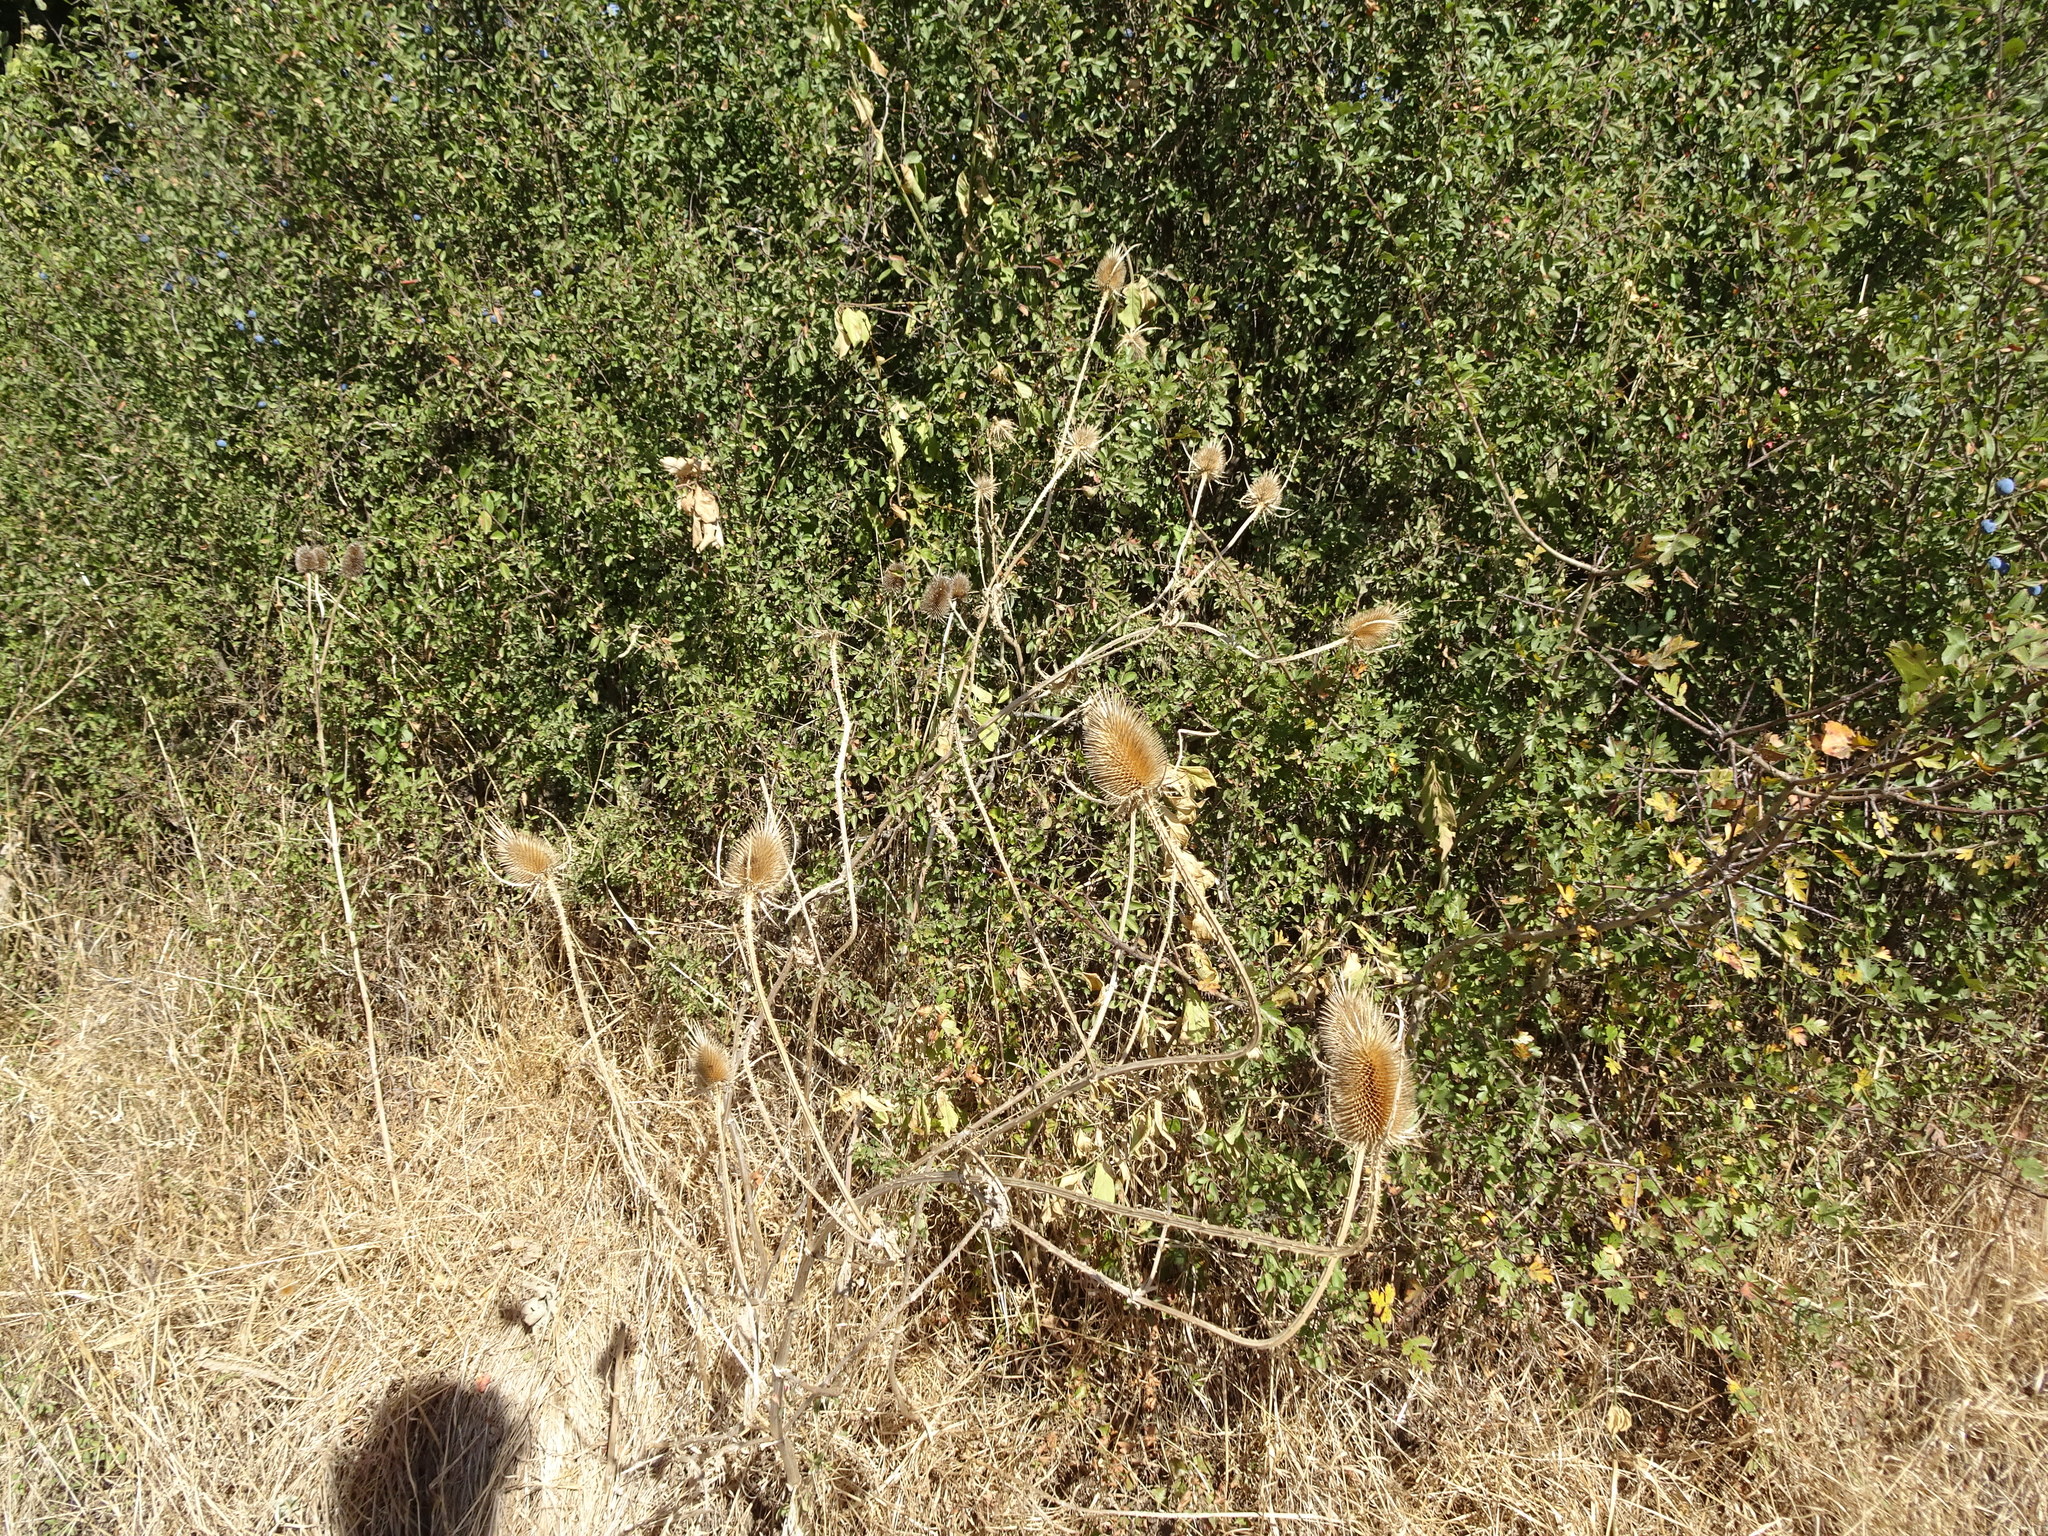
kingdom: Plantae
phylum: Tracheophyta
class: Magnoliopsida
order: Dipsacales
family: Caprifoliaceae
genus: Dipsacus
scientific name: Dipsacus fullonum
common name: Teasel
